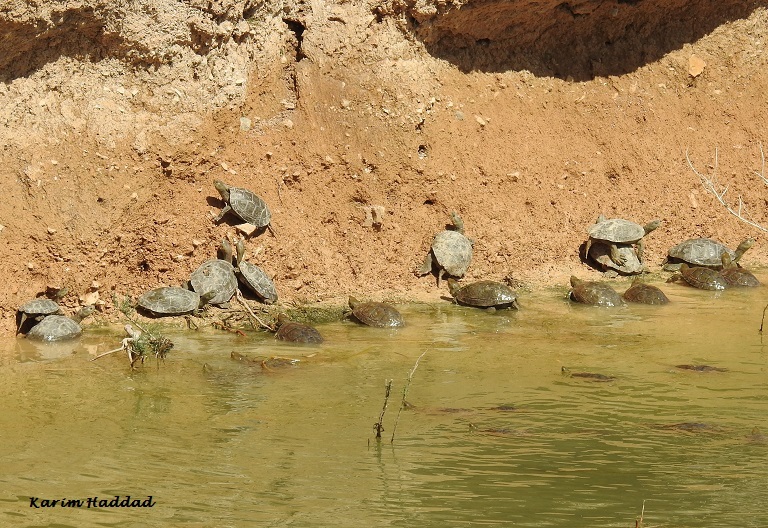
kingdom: Animalia
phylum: Chordata
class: Testudines
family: Geoemydidae
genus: Mauremys
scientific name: Mauremys leprosa
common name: Mediterranean pond turtle
